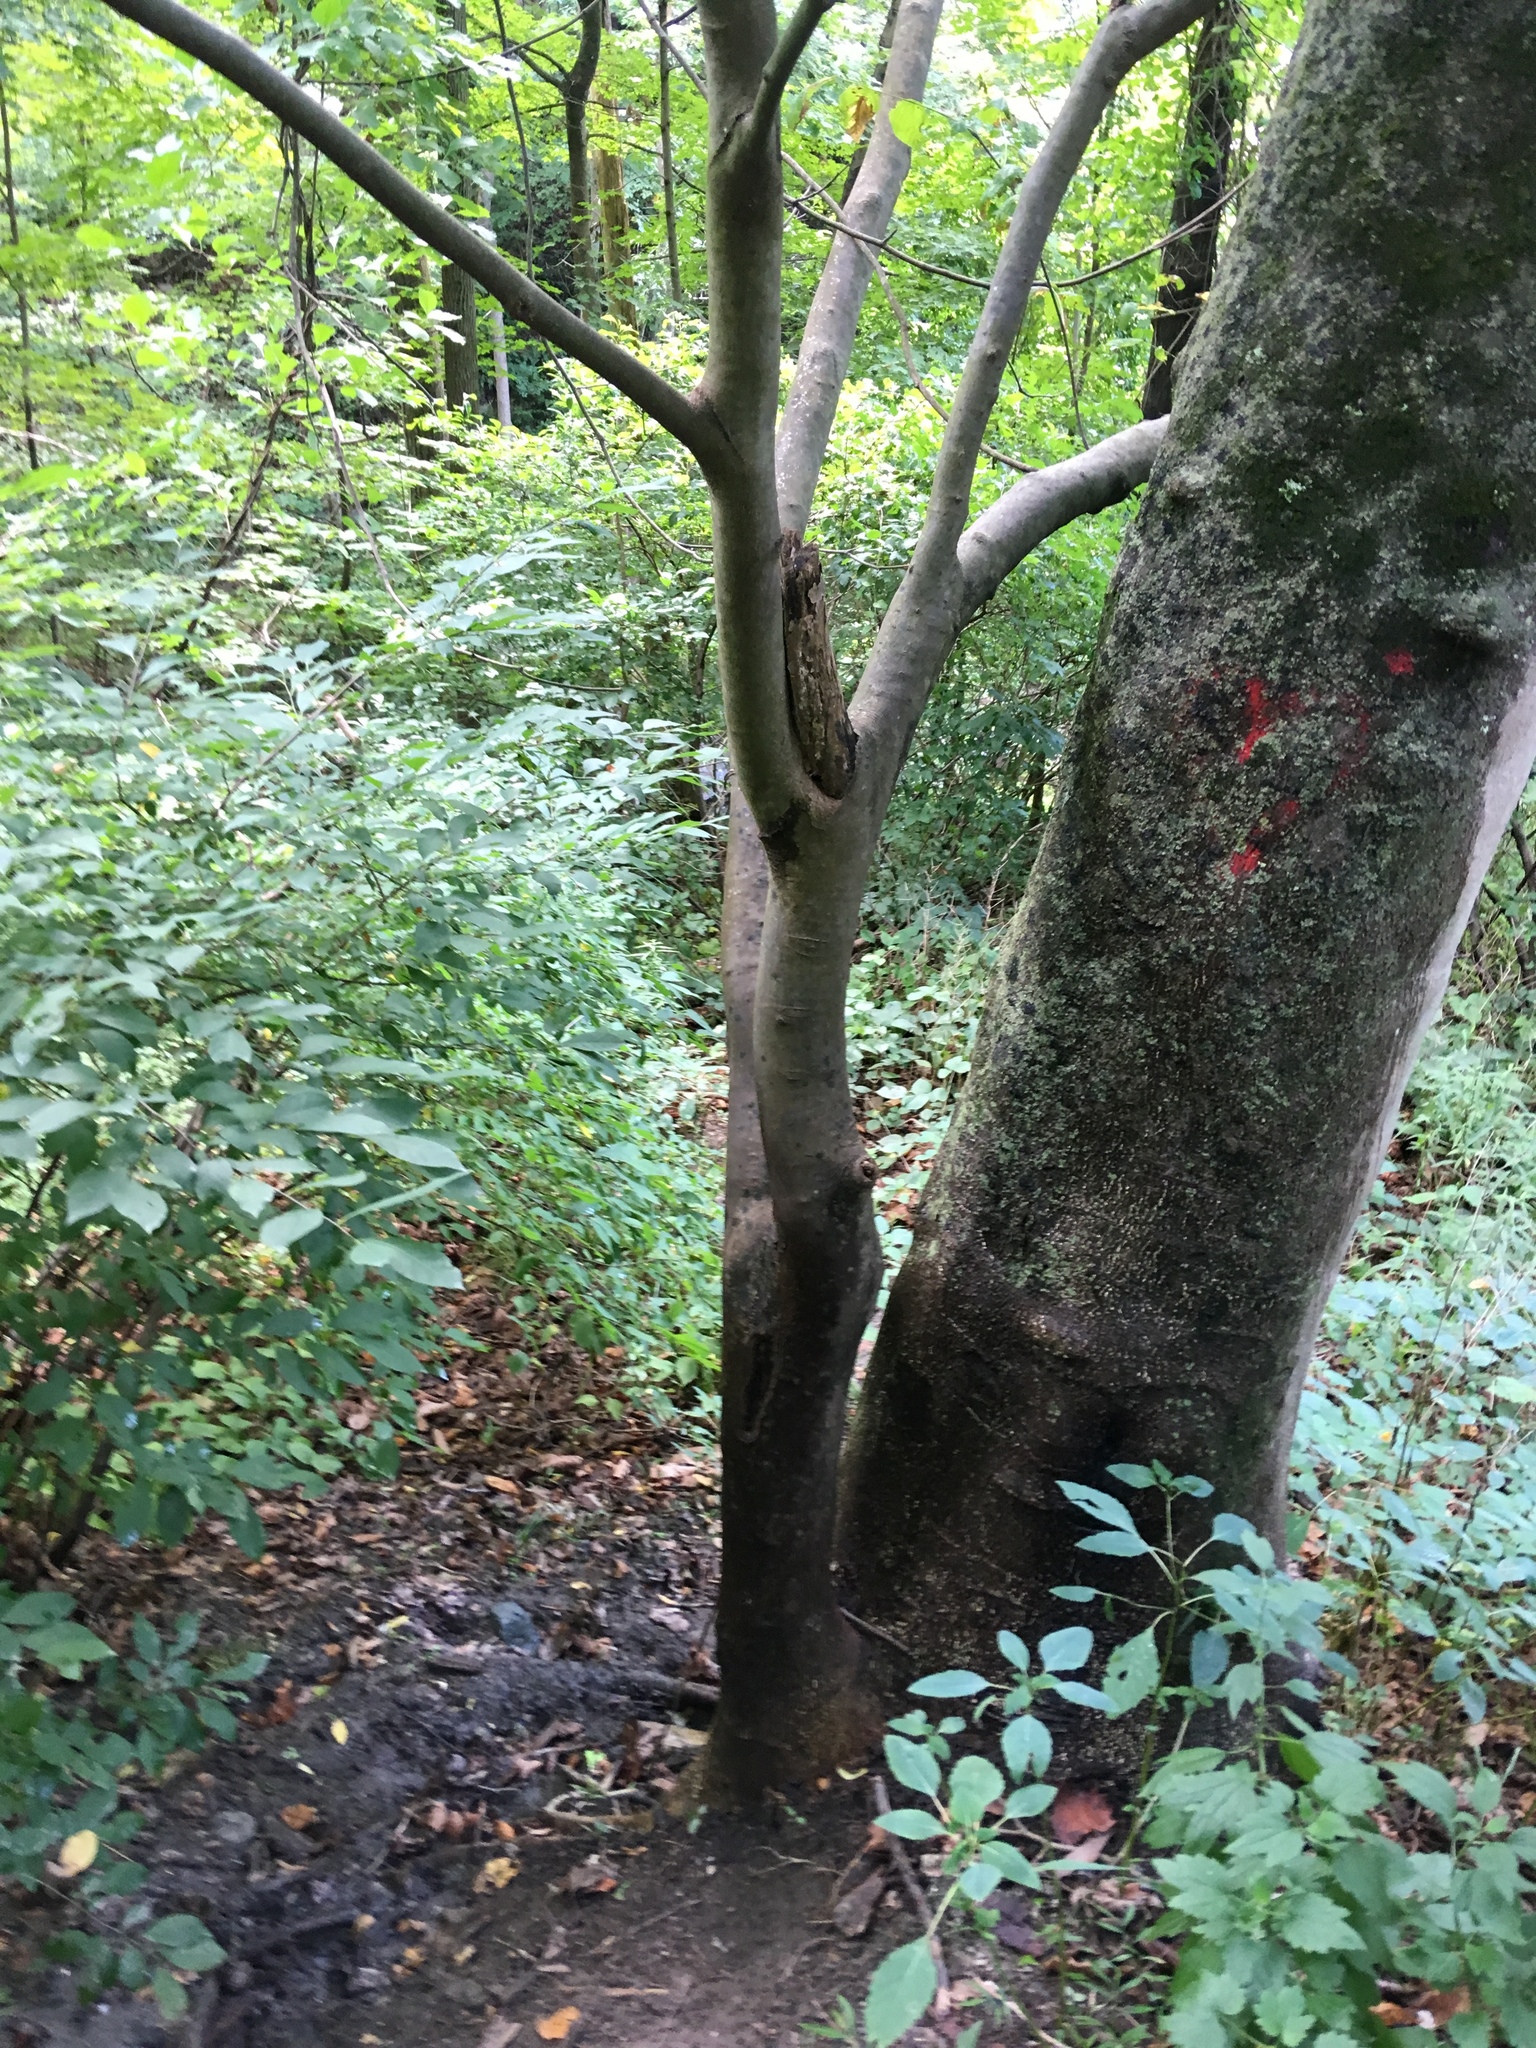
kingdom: Plantae
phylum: Tracheophyta
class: Magnoliopsida
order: Fabales
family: Fabaceae
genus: Cladrastis
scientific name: Cladrastis kentukea
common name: Kentucky yellow-wood
